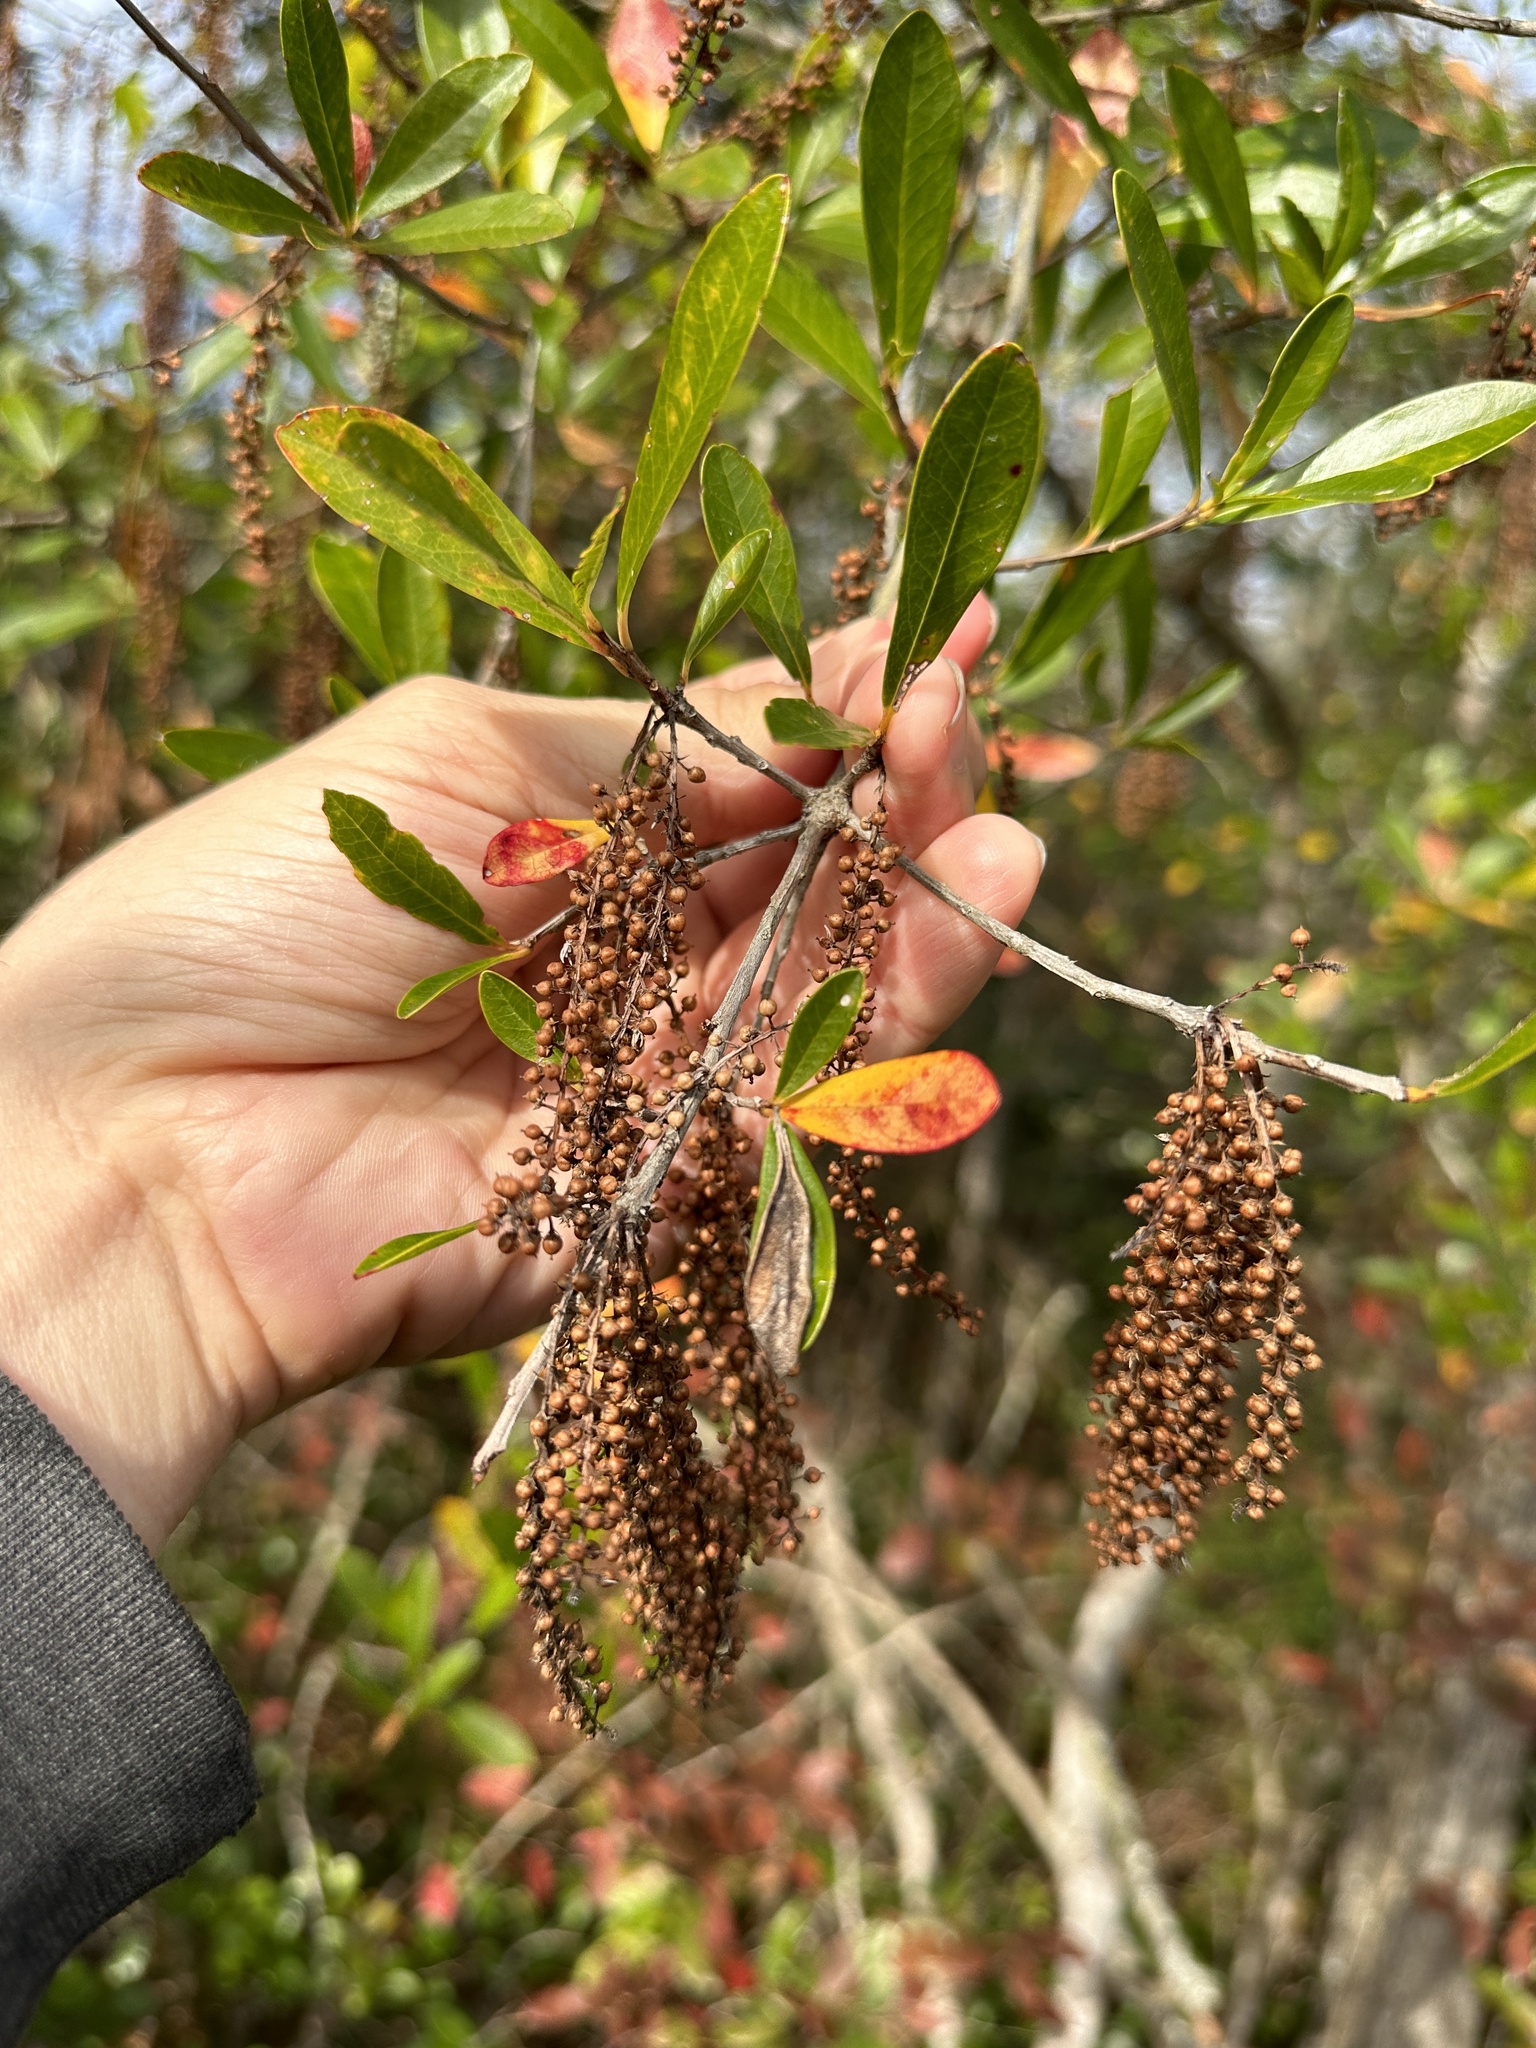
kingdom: Plantae
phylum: Tracheophyta
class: Magnoliopsida
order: Ericales
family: Cyrillaceae
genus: Cyrilla
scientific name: Cyrilla racemiflora
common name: Black titi
